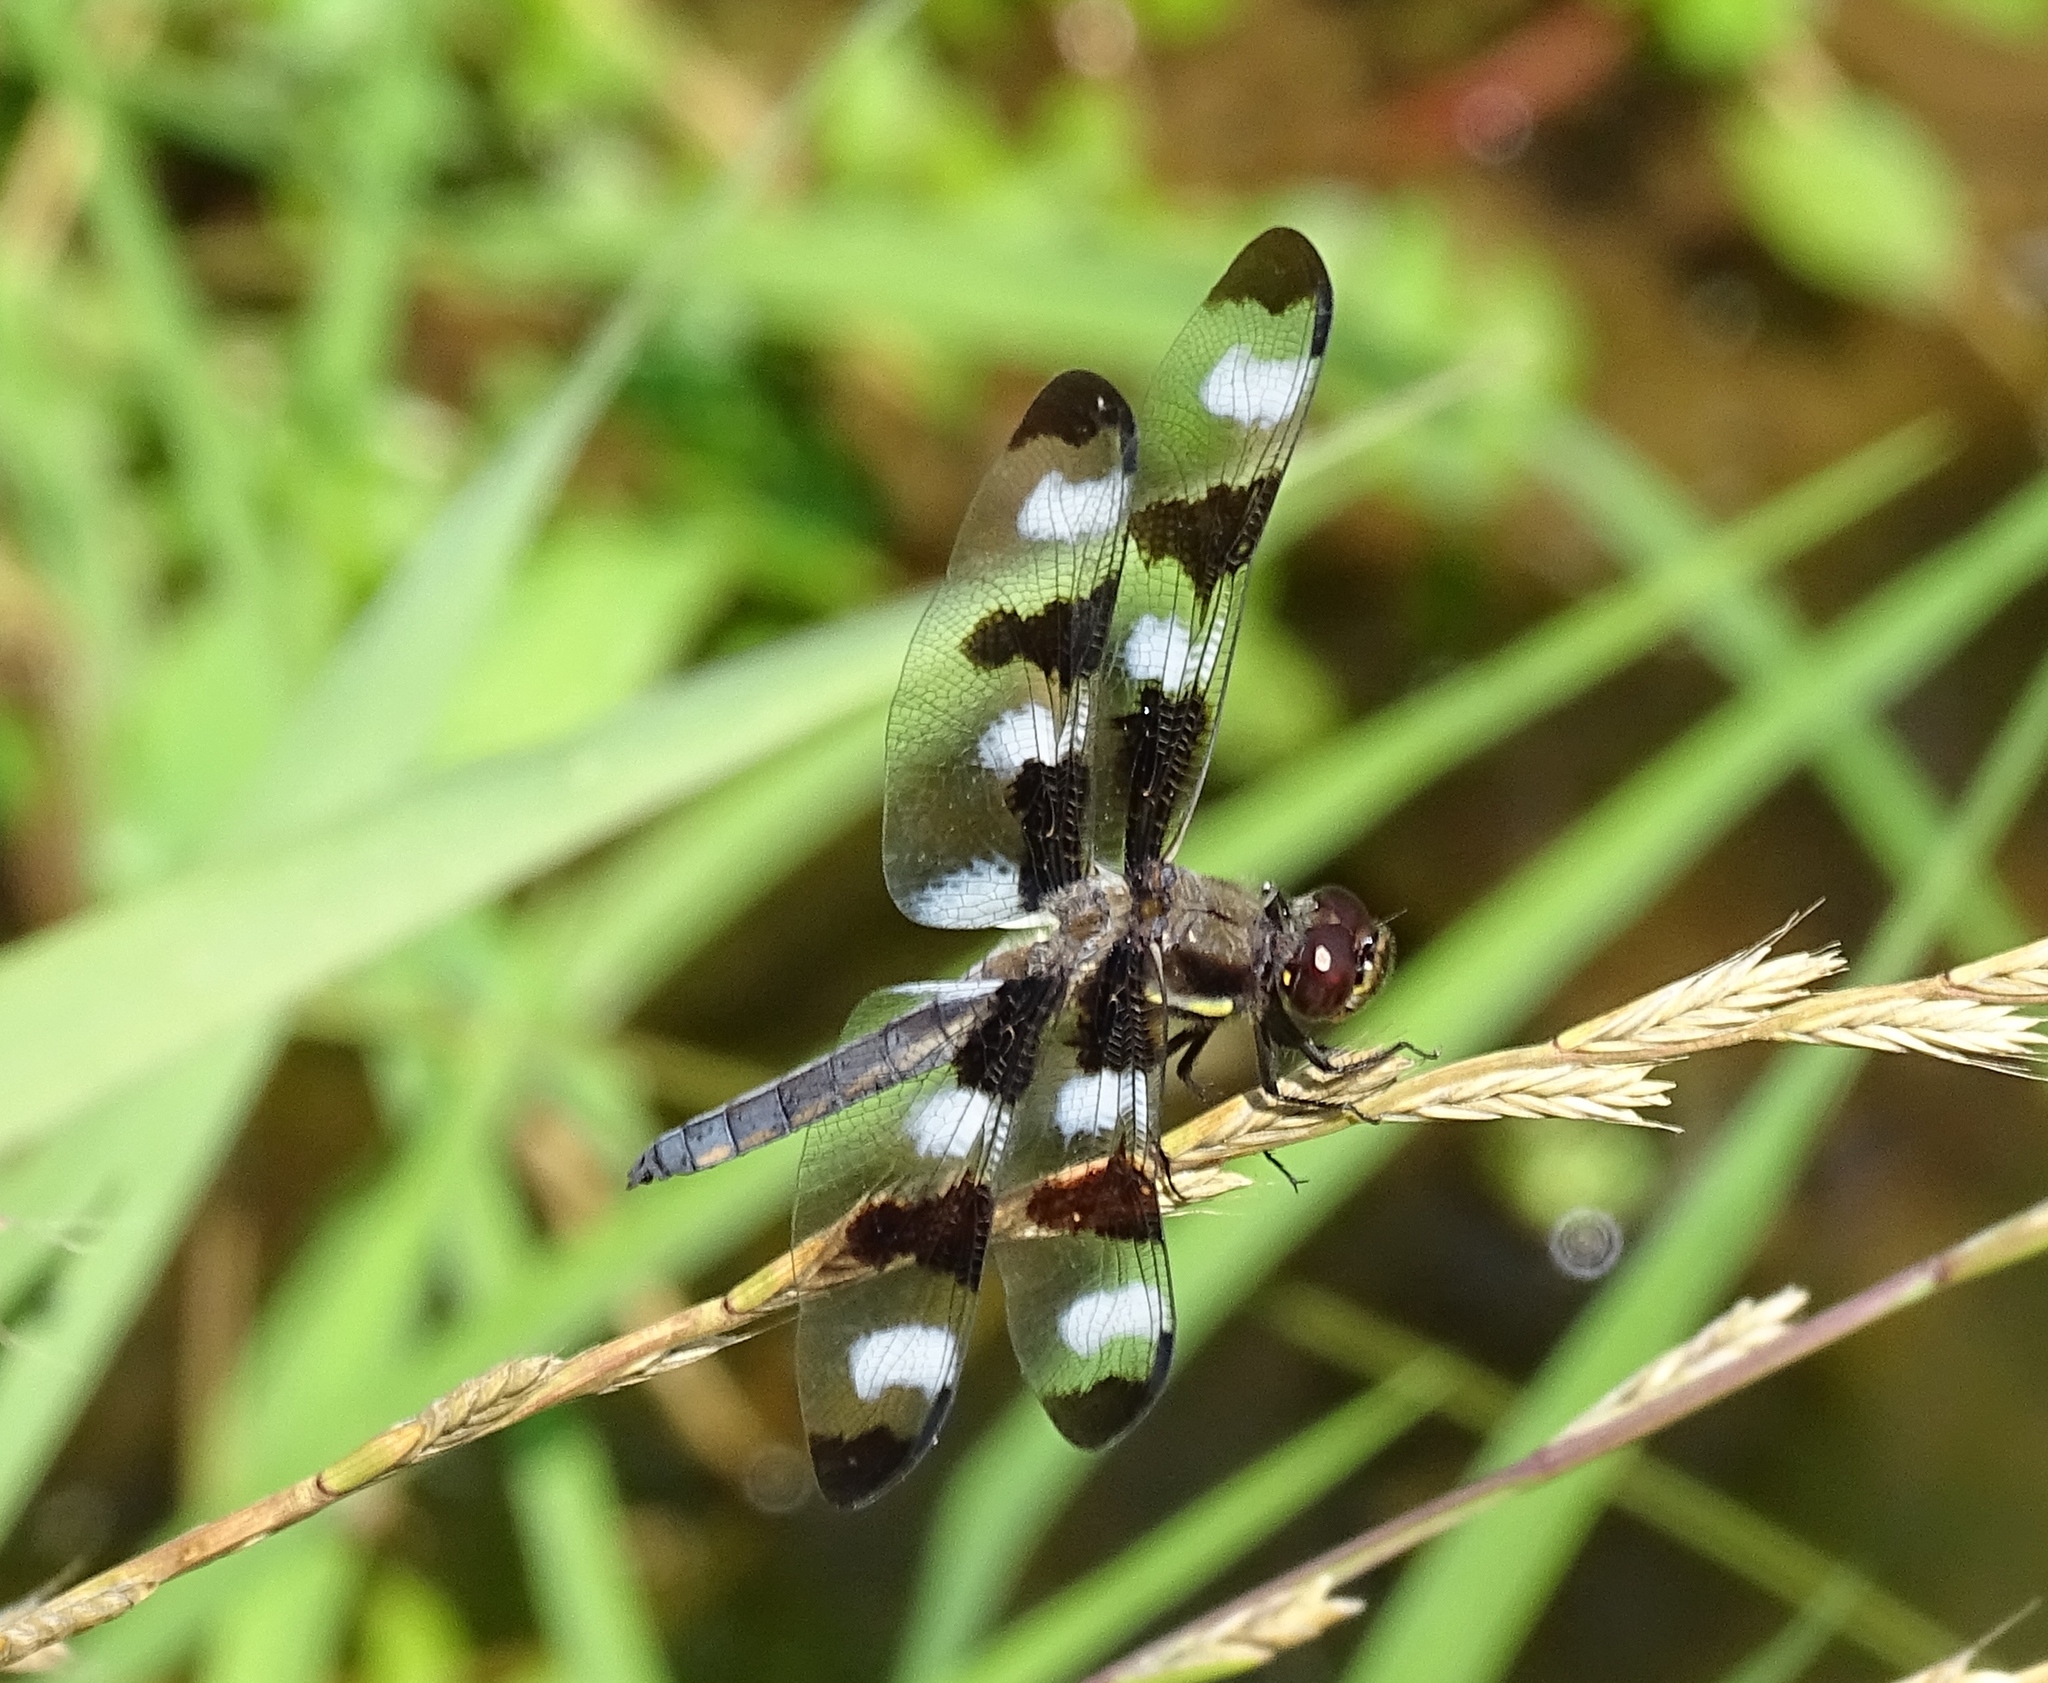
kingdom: Animalia
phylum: Arthropoda
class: Insecta
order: Odonata
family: Libellulidae
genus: Libellula
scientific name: Libellula pulchella
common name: Twelve-spotted skimmer
